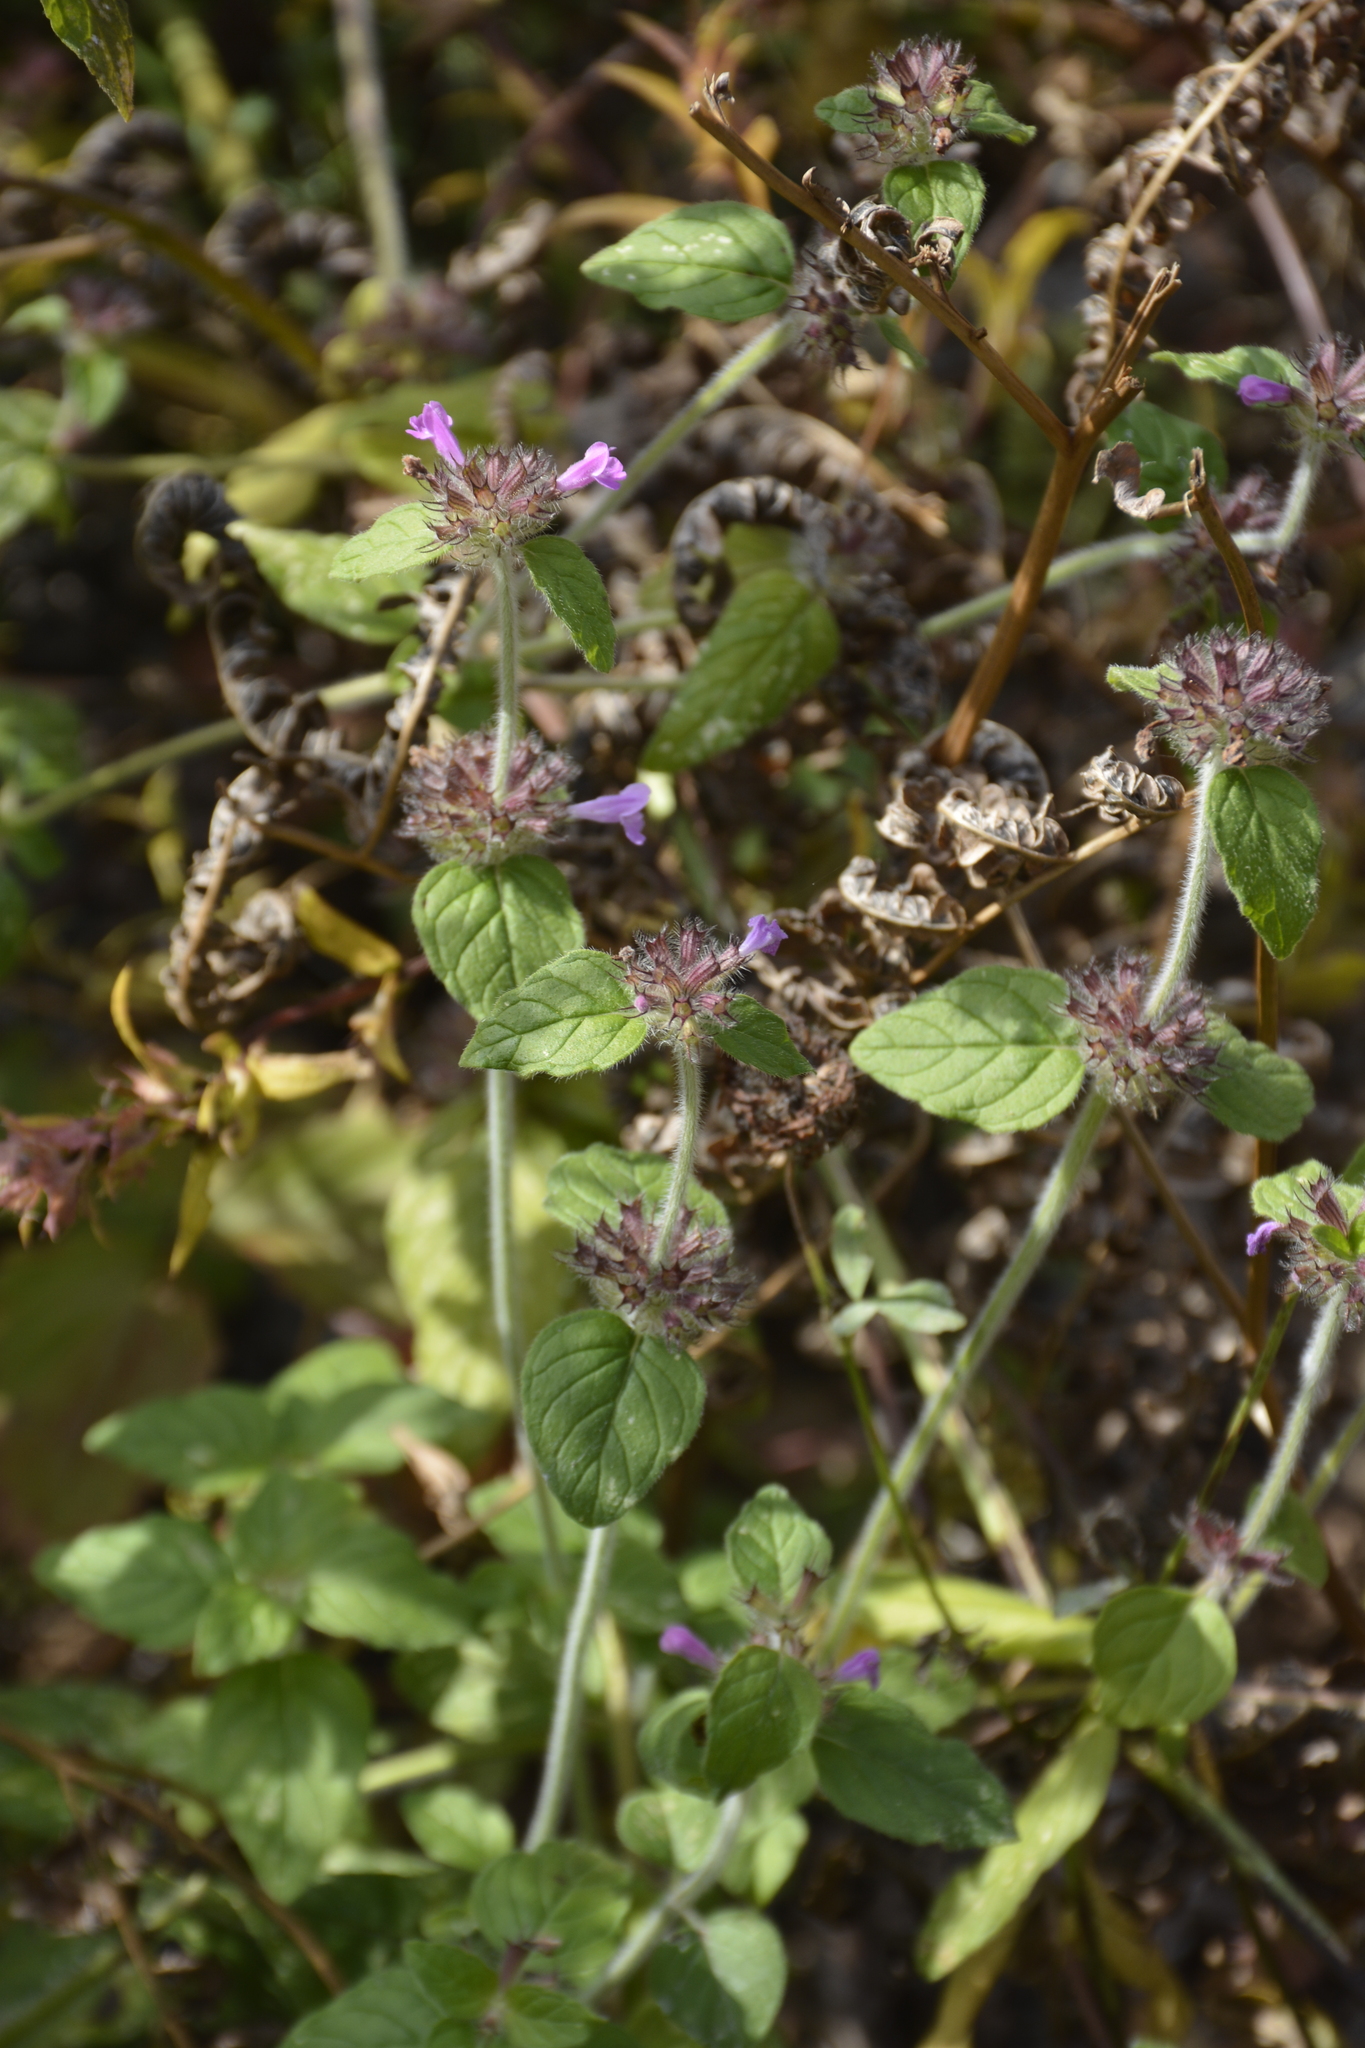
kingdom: Plantae
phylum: Tracheophyta
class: Magnoliopsida
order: Lamiales
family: Lamiaceae
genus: Clinopodium
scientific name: Clinopodium vulgare
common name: Wild basil
